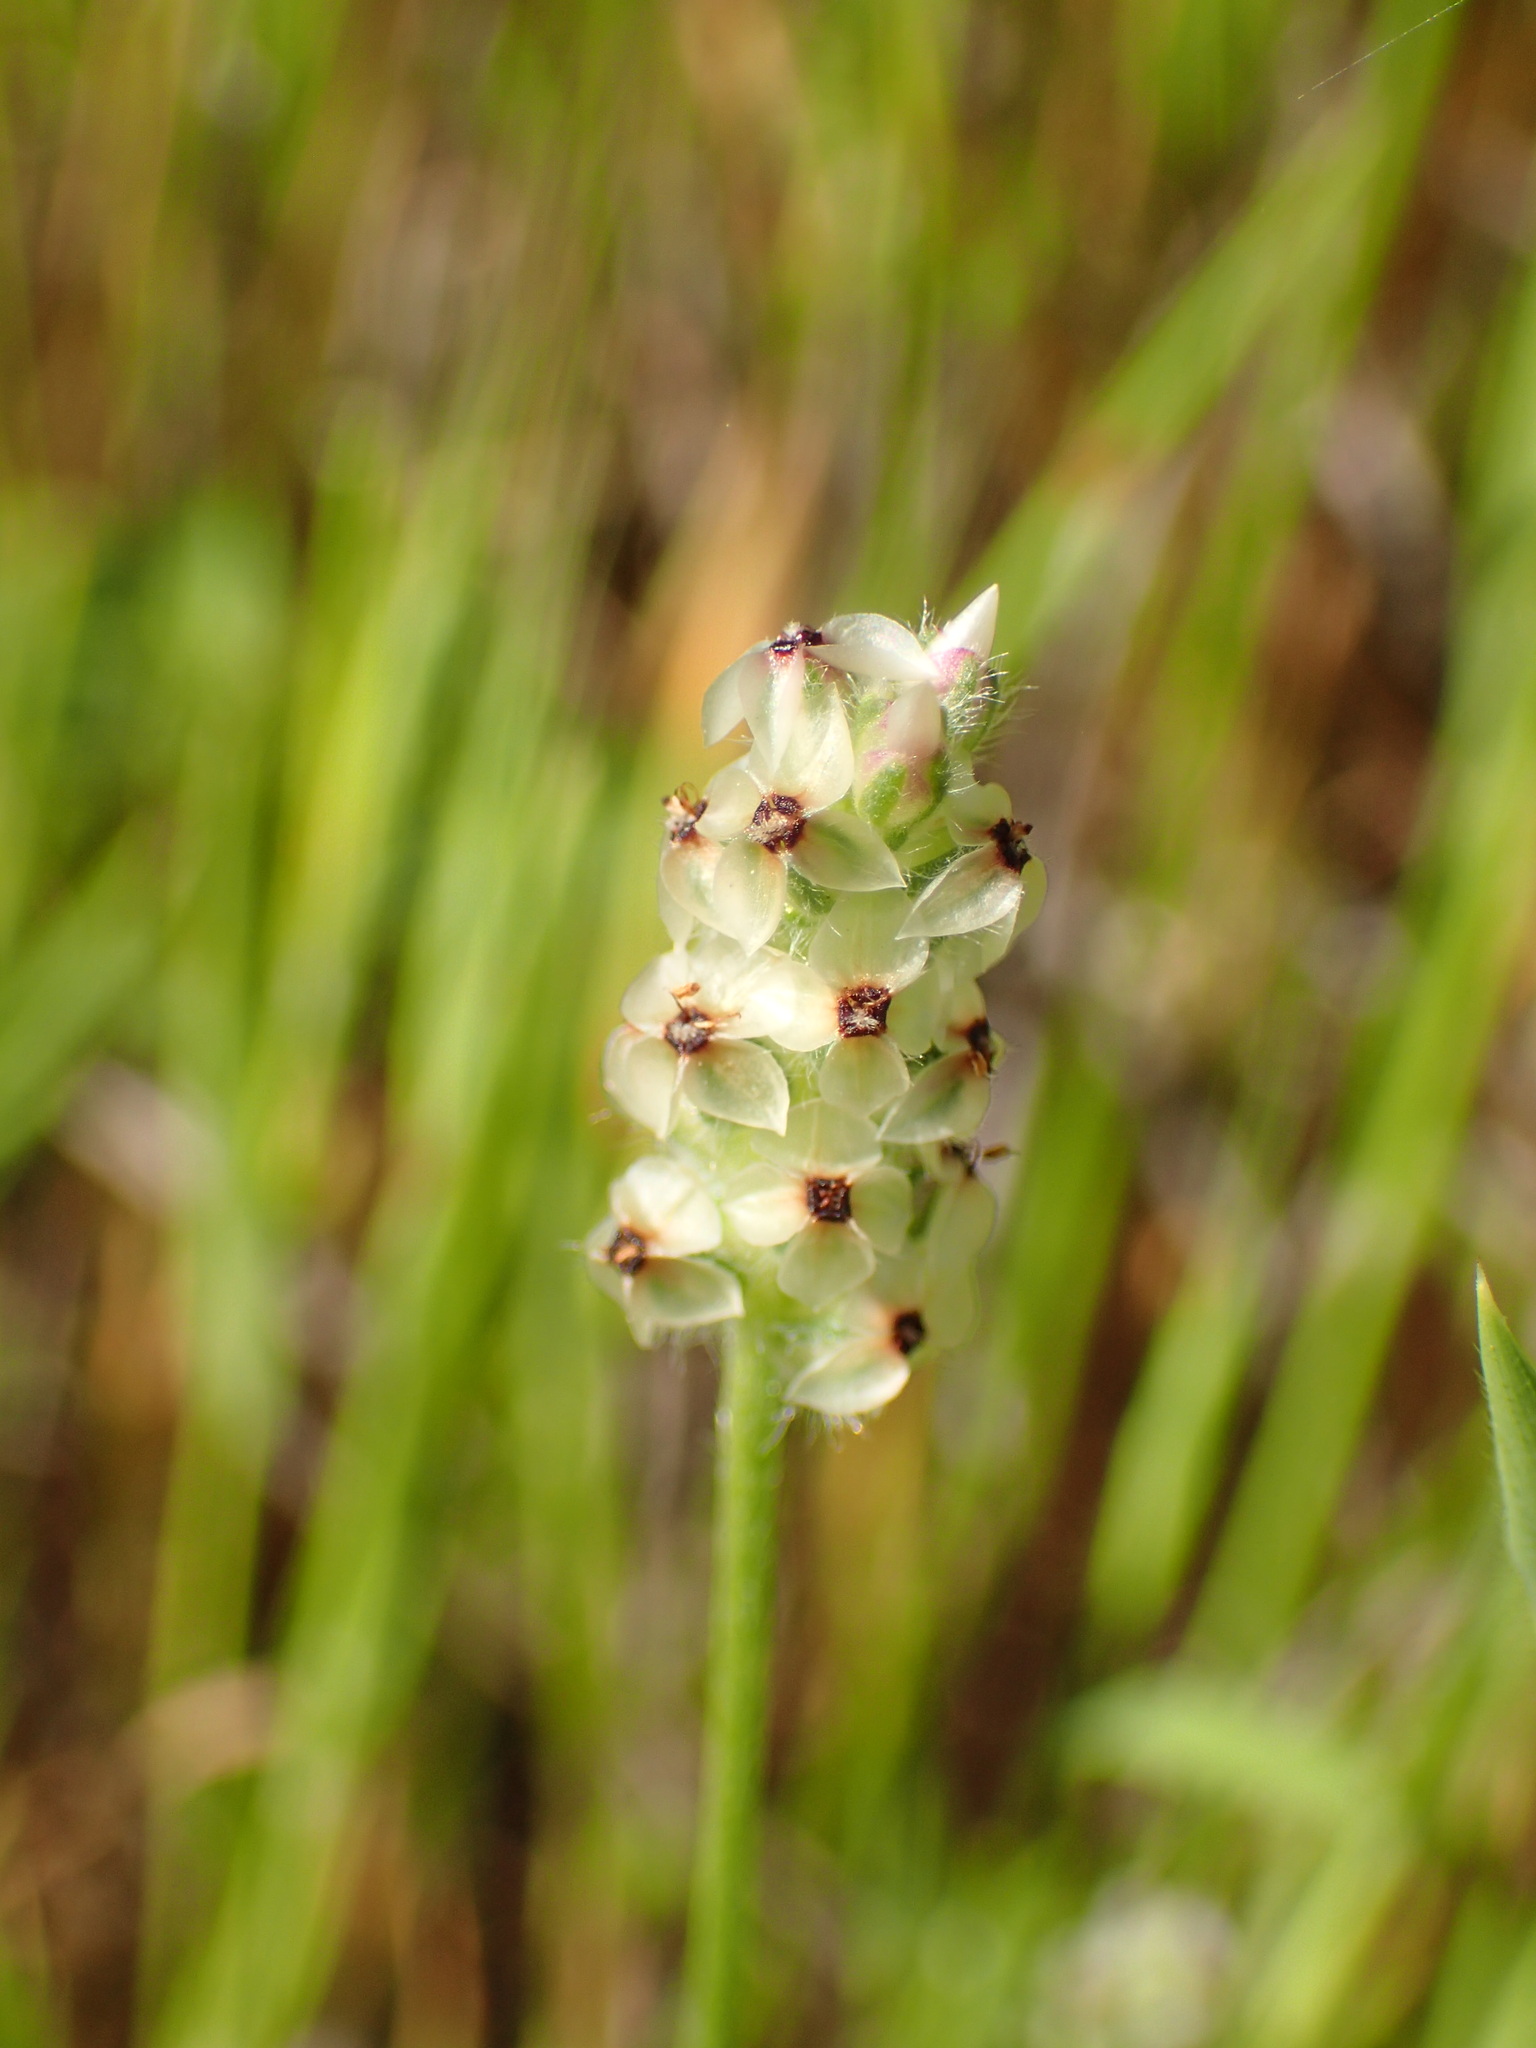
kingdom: Plantae
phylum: Tracheophyta
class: Magnoliopsida
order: Lamiales
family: Plantaginaceae
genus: Plantago
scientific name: Plantago erecta
